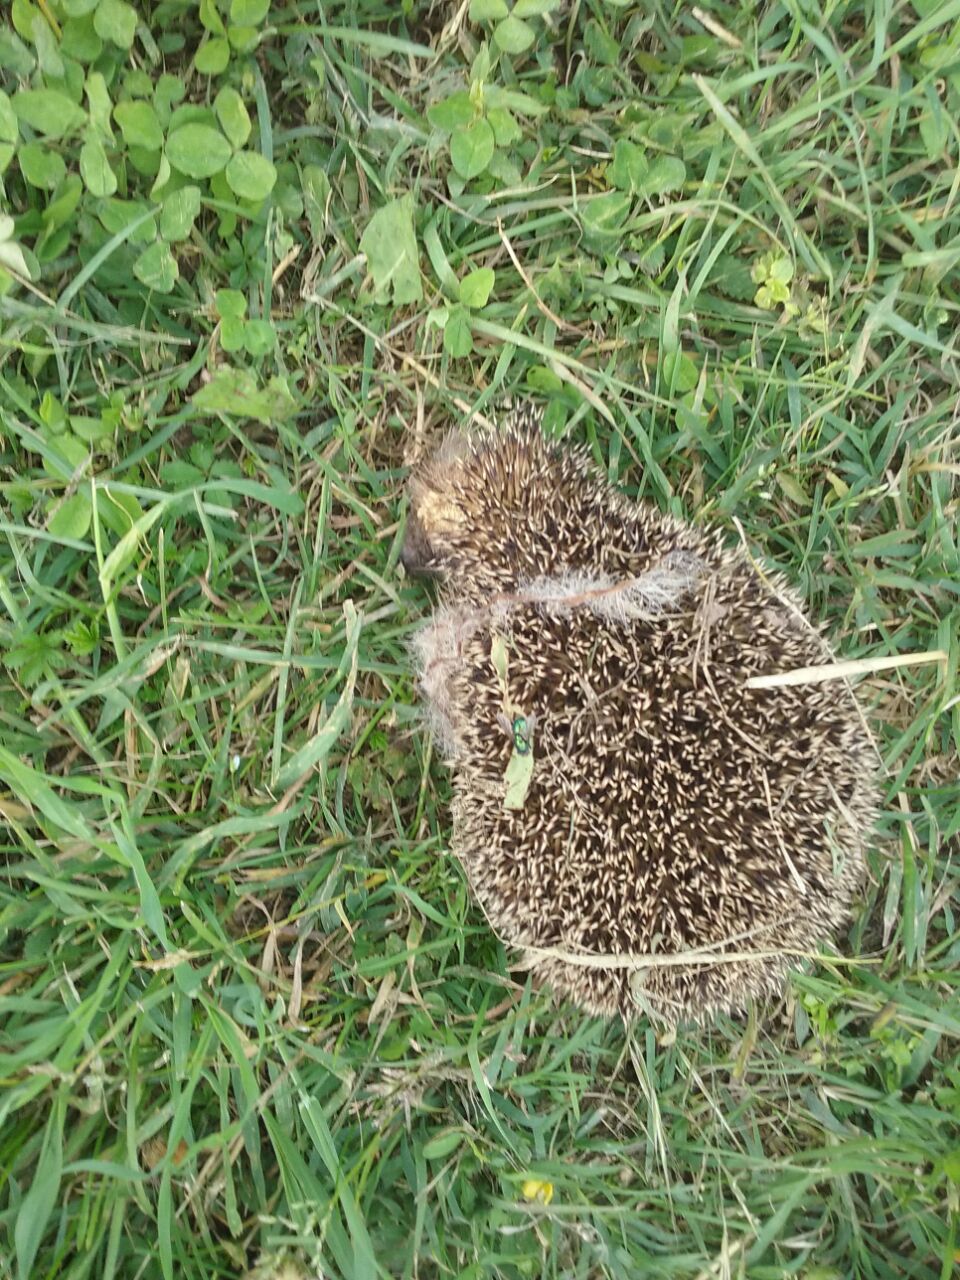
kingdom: Animalia
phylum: Chordata
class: Mammalia
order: Erinaceomorpha
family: Erinaceidae
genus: Erinaceus
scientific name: Erinaceus europaeus
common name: West european hedgehog
